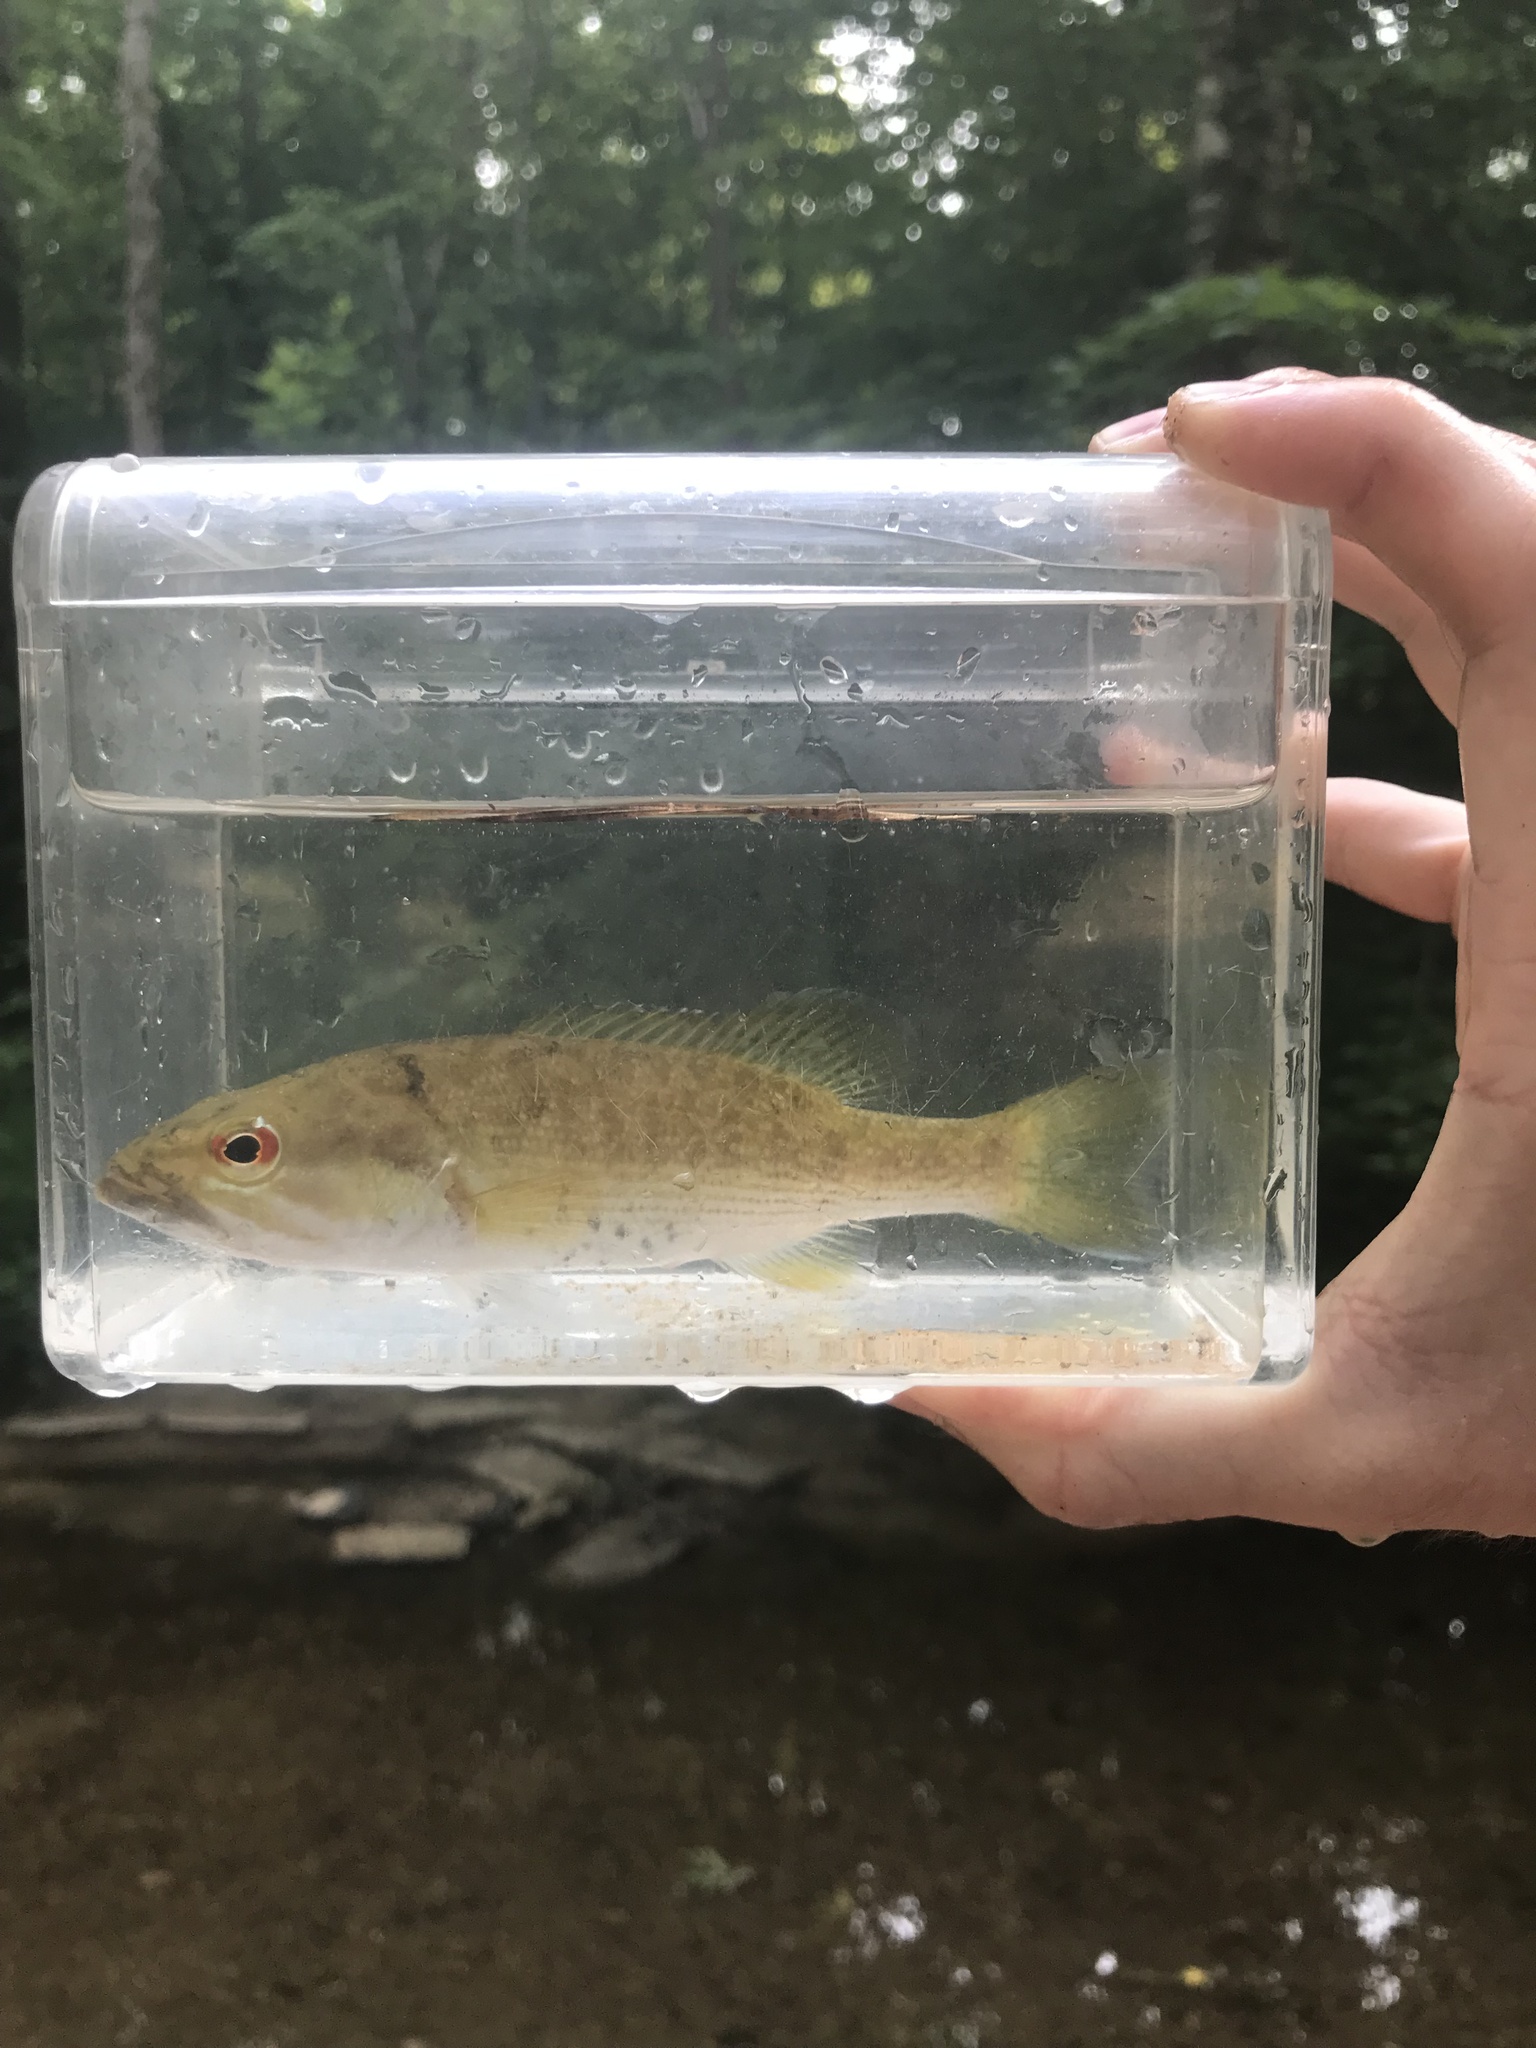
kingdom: Animalia
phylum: Chordata
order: Perciformes
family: Centrarchidae
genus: Micropterus
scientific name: Micropterus cahabae
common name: Cahaba bass
